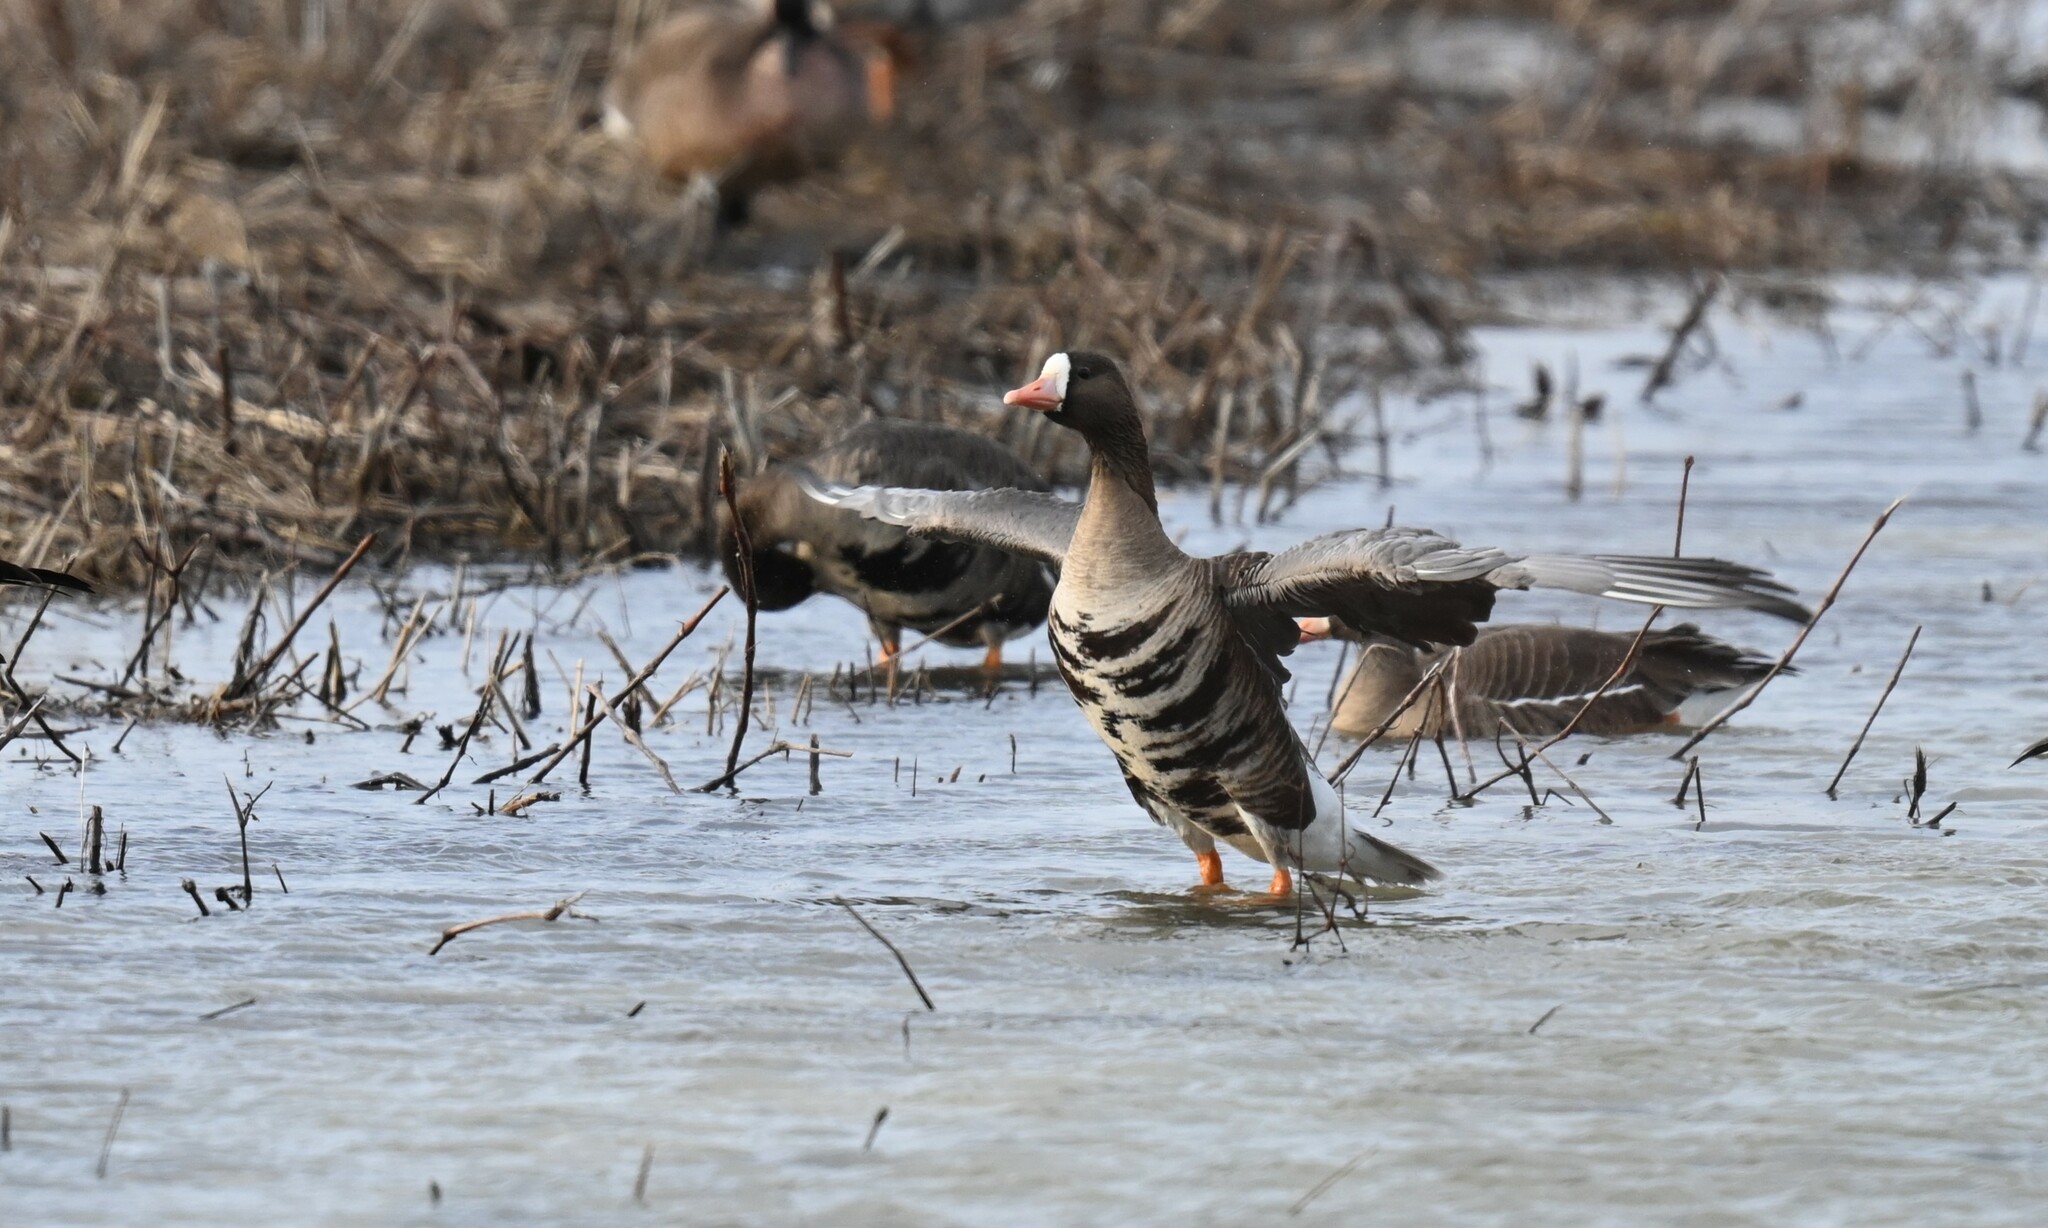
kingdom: Animalia
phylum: Chordata
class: Aves
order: Anseriformes
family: Anatidae
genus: Anser
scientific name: Anser albifrons
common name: Greater white-fronted goose
